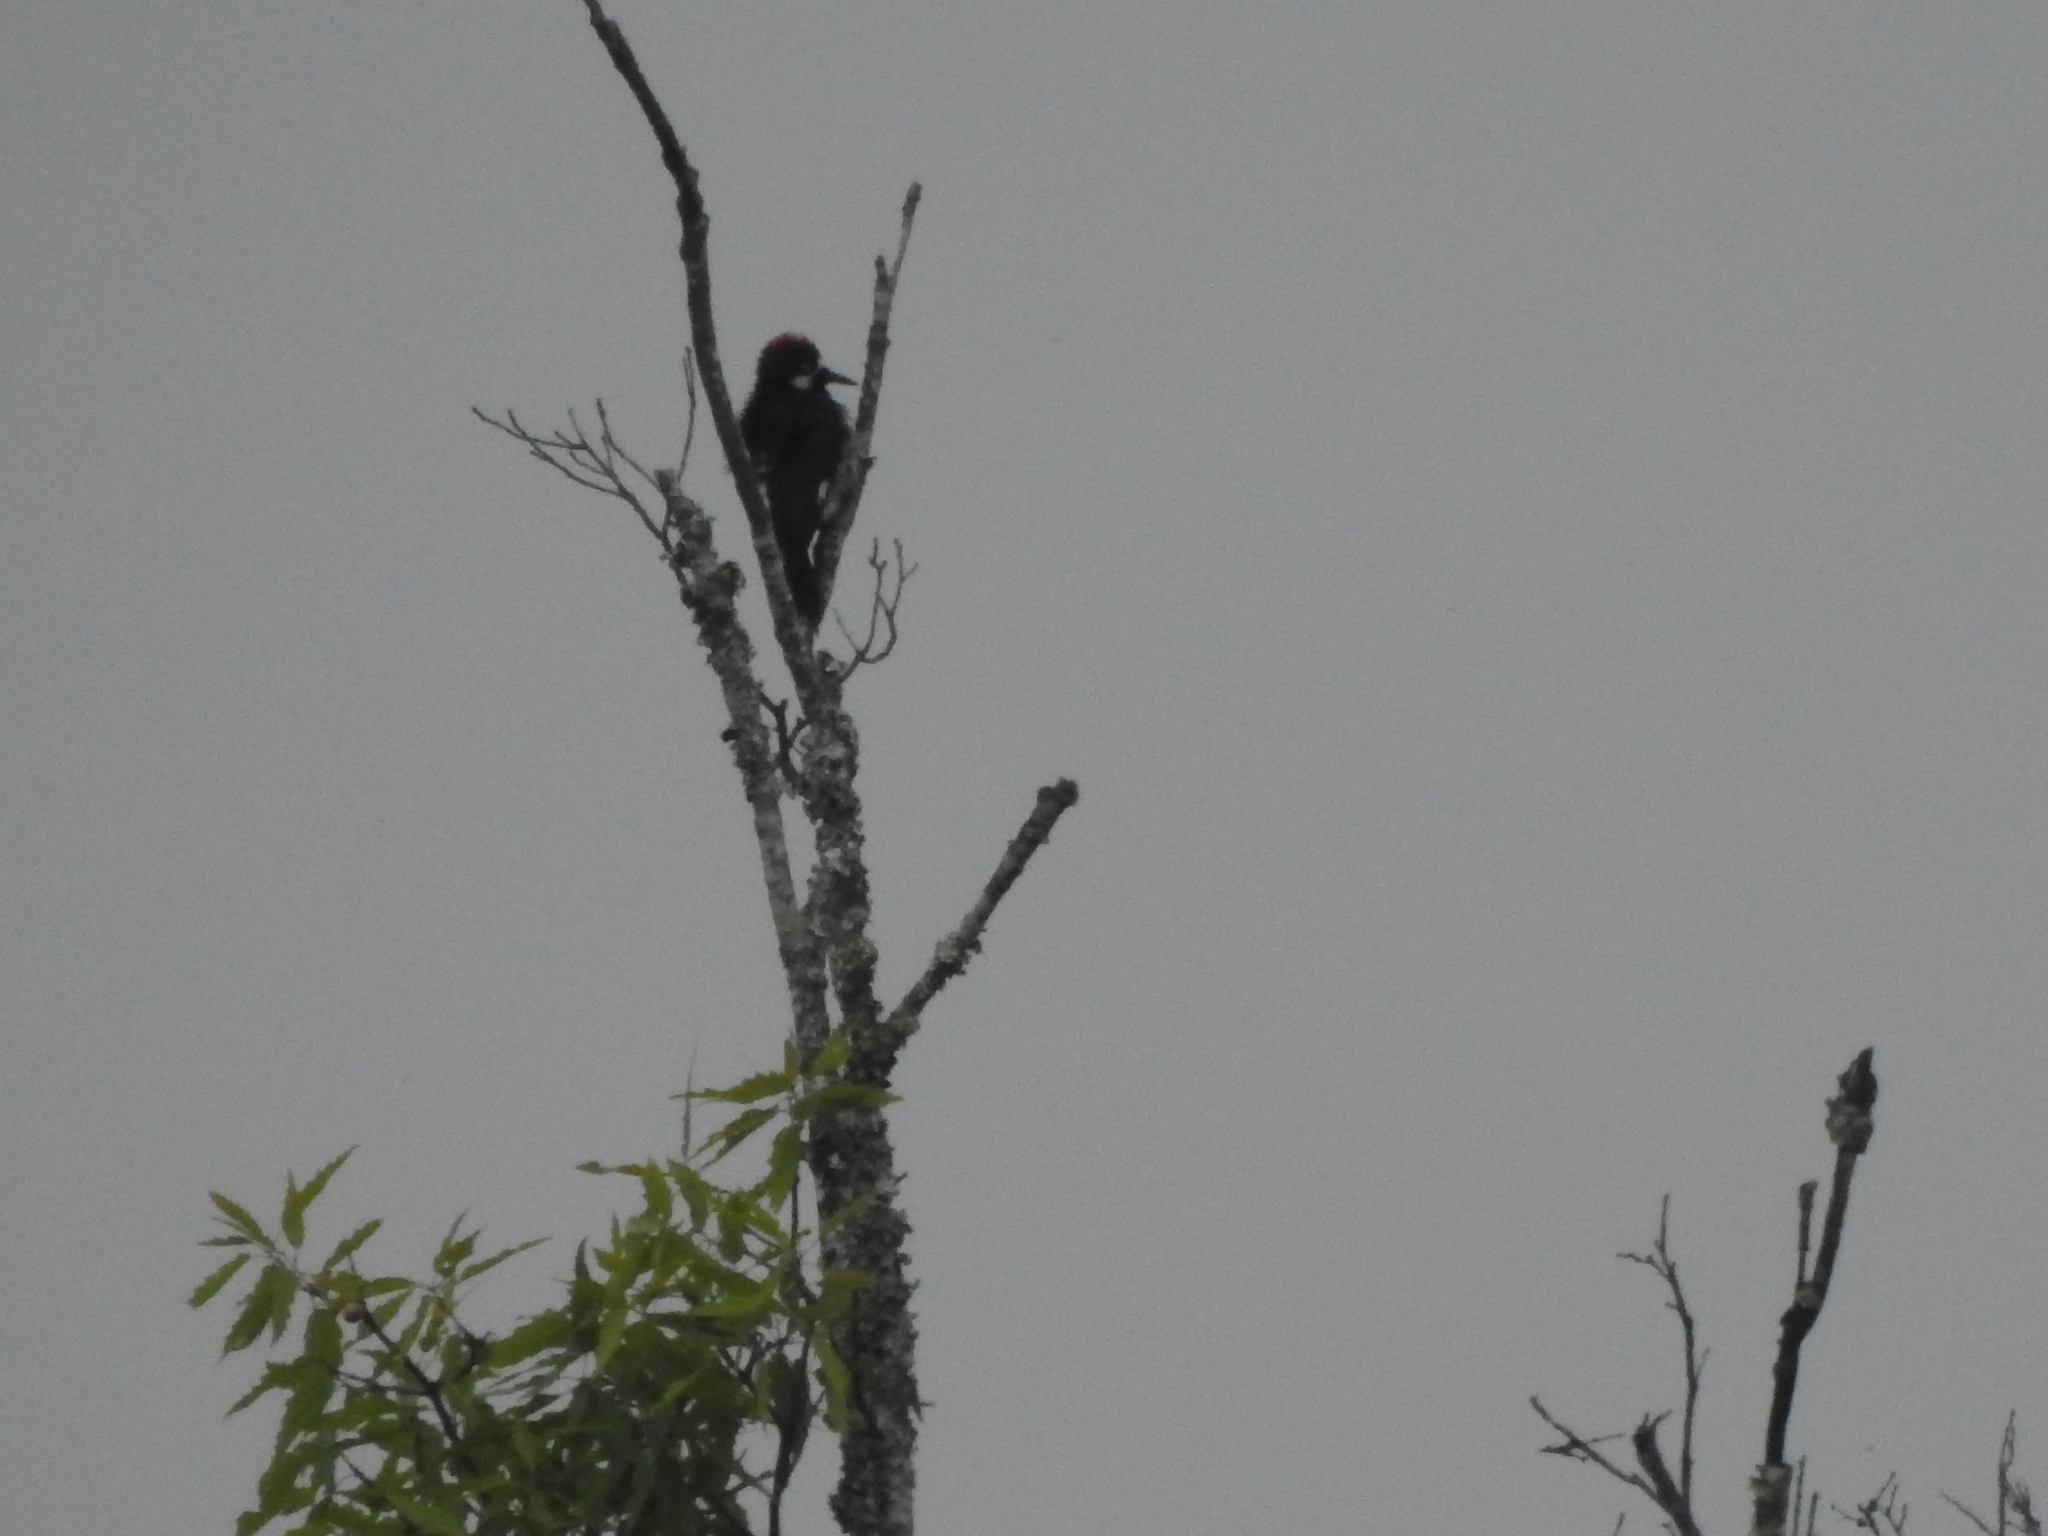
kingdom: Animalia
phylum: Chordata
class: Aves
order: Piciformes
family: Picidae
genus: Melanerpes
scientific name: Melanerpes formicivorus
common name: Acorn woodpecker
